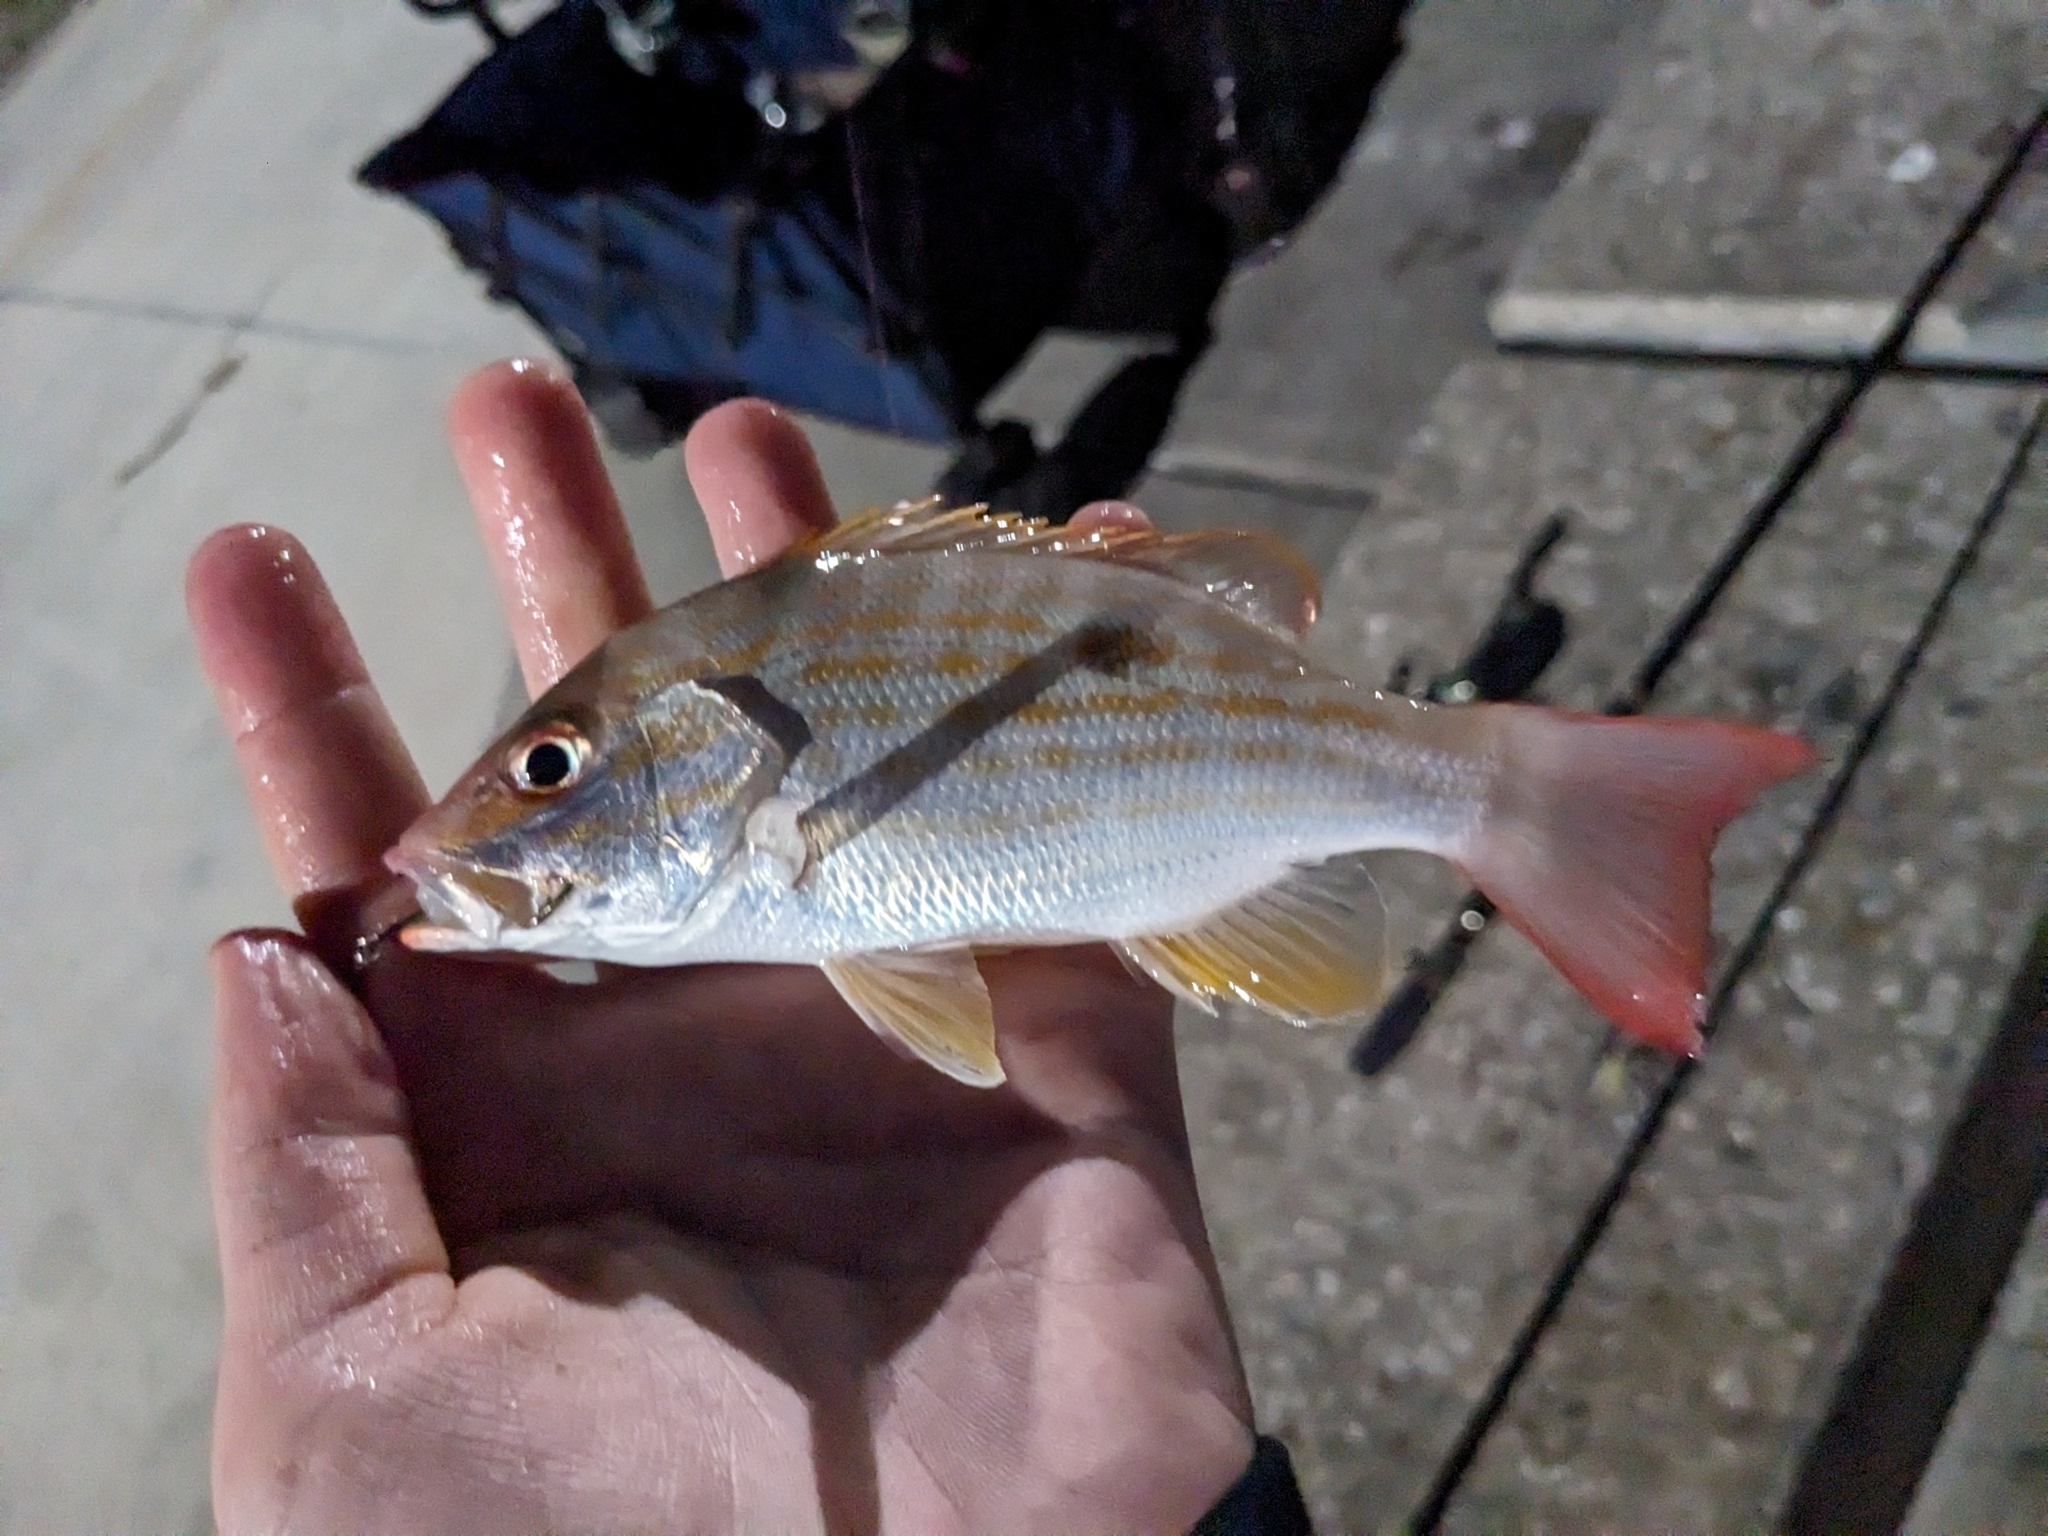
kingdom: Animalia
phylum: Chordata
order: Perciformes
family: Lutjanidae
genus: Lutjanus
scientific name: Lutjanus synagris
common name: Lane snapper
